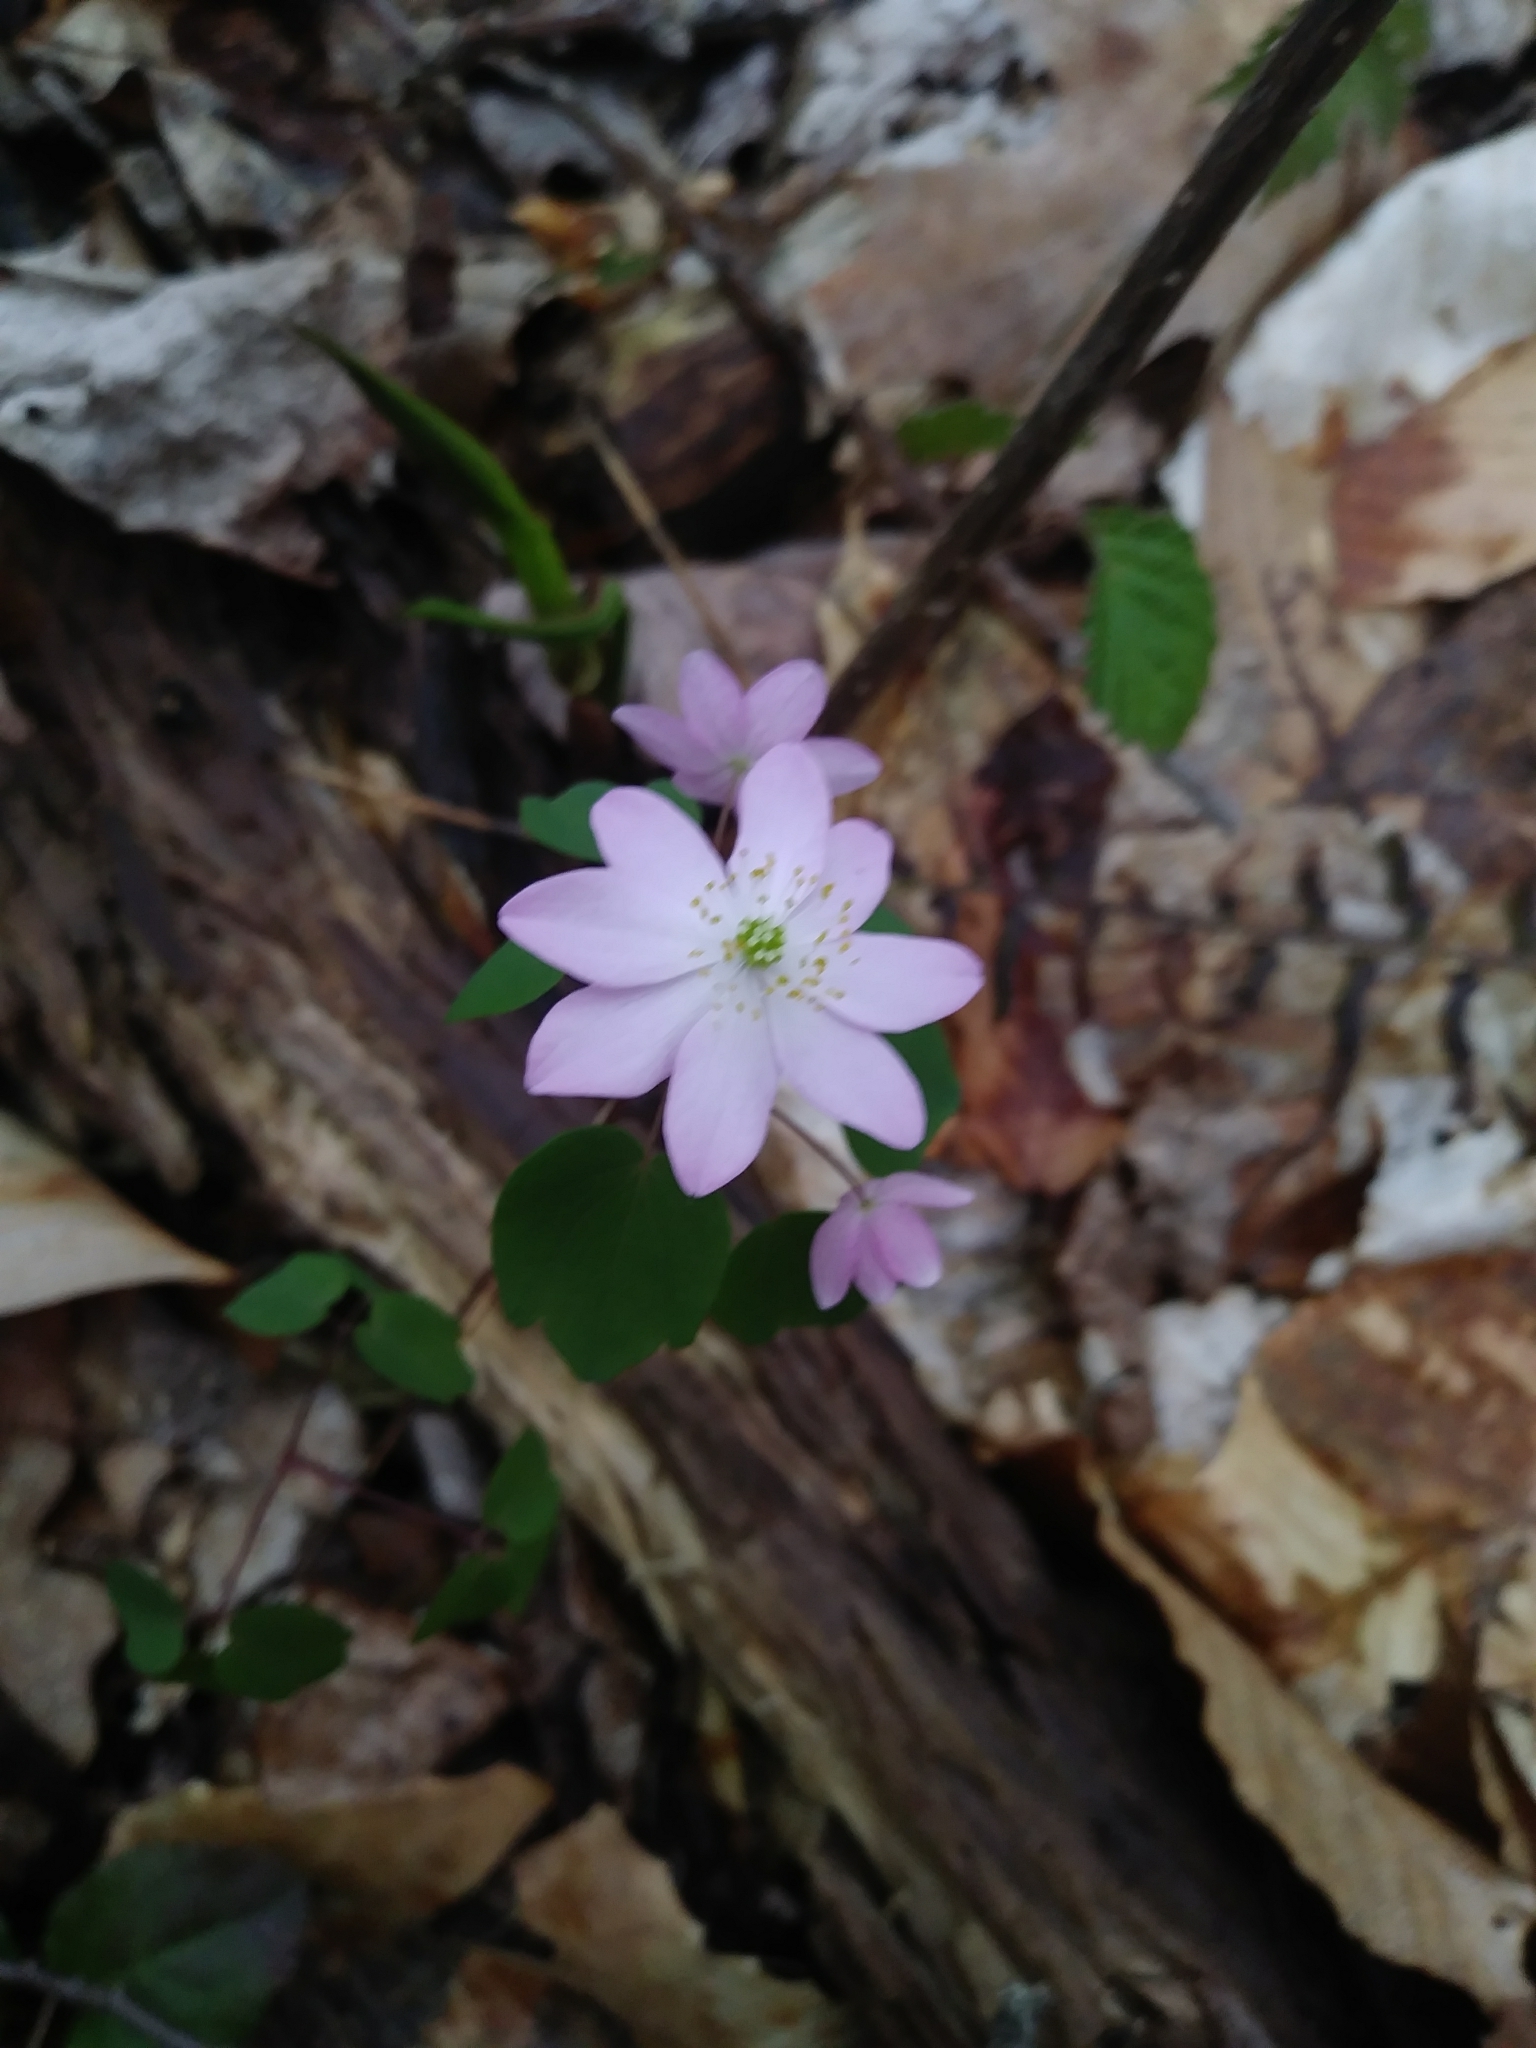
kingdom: Plantae
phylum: Tracheophyta
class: Magnoliopsida
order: Ranunculales
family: Ranunculaceae
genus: Thalictrum
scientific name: Thalictrum thalictroides
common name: Rue-anemone
